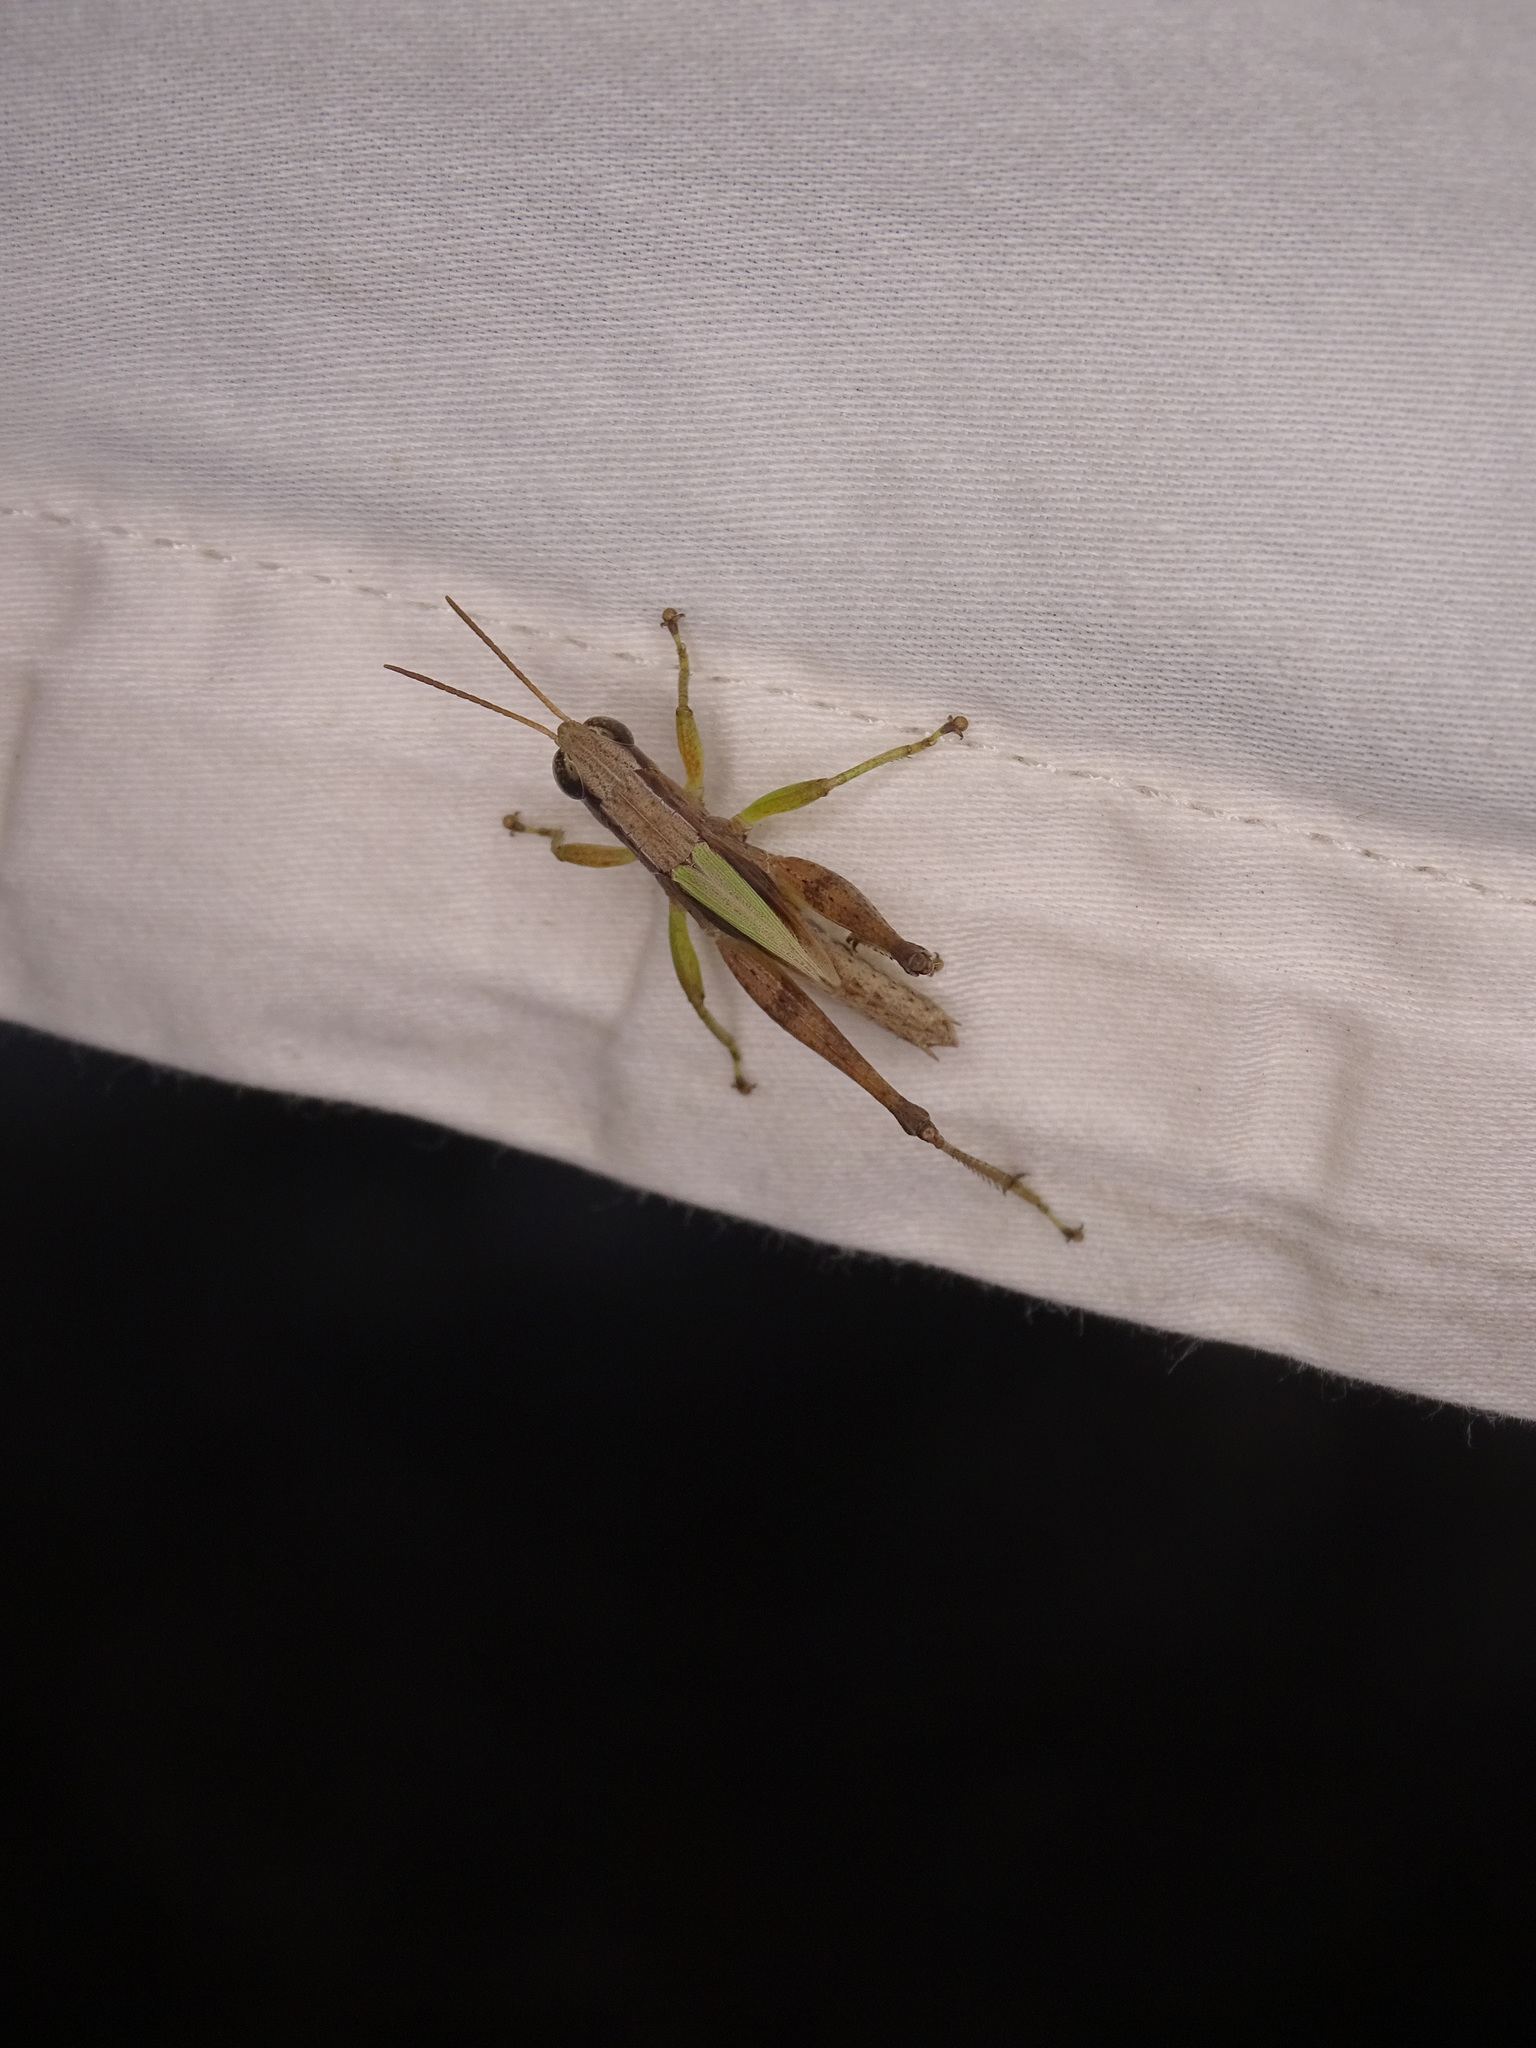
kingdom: Animalia
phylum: Arthropoda
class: Insecta
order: Orthoptera
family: Acrididae
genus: Dichromorpha
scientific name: Dichromorpha elegans
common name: Elegant grasshopper
